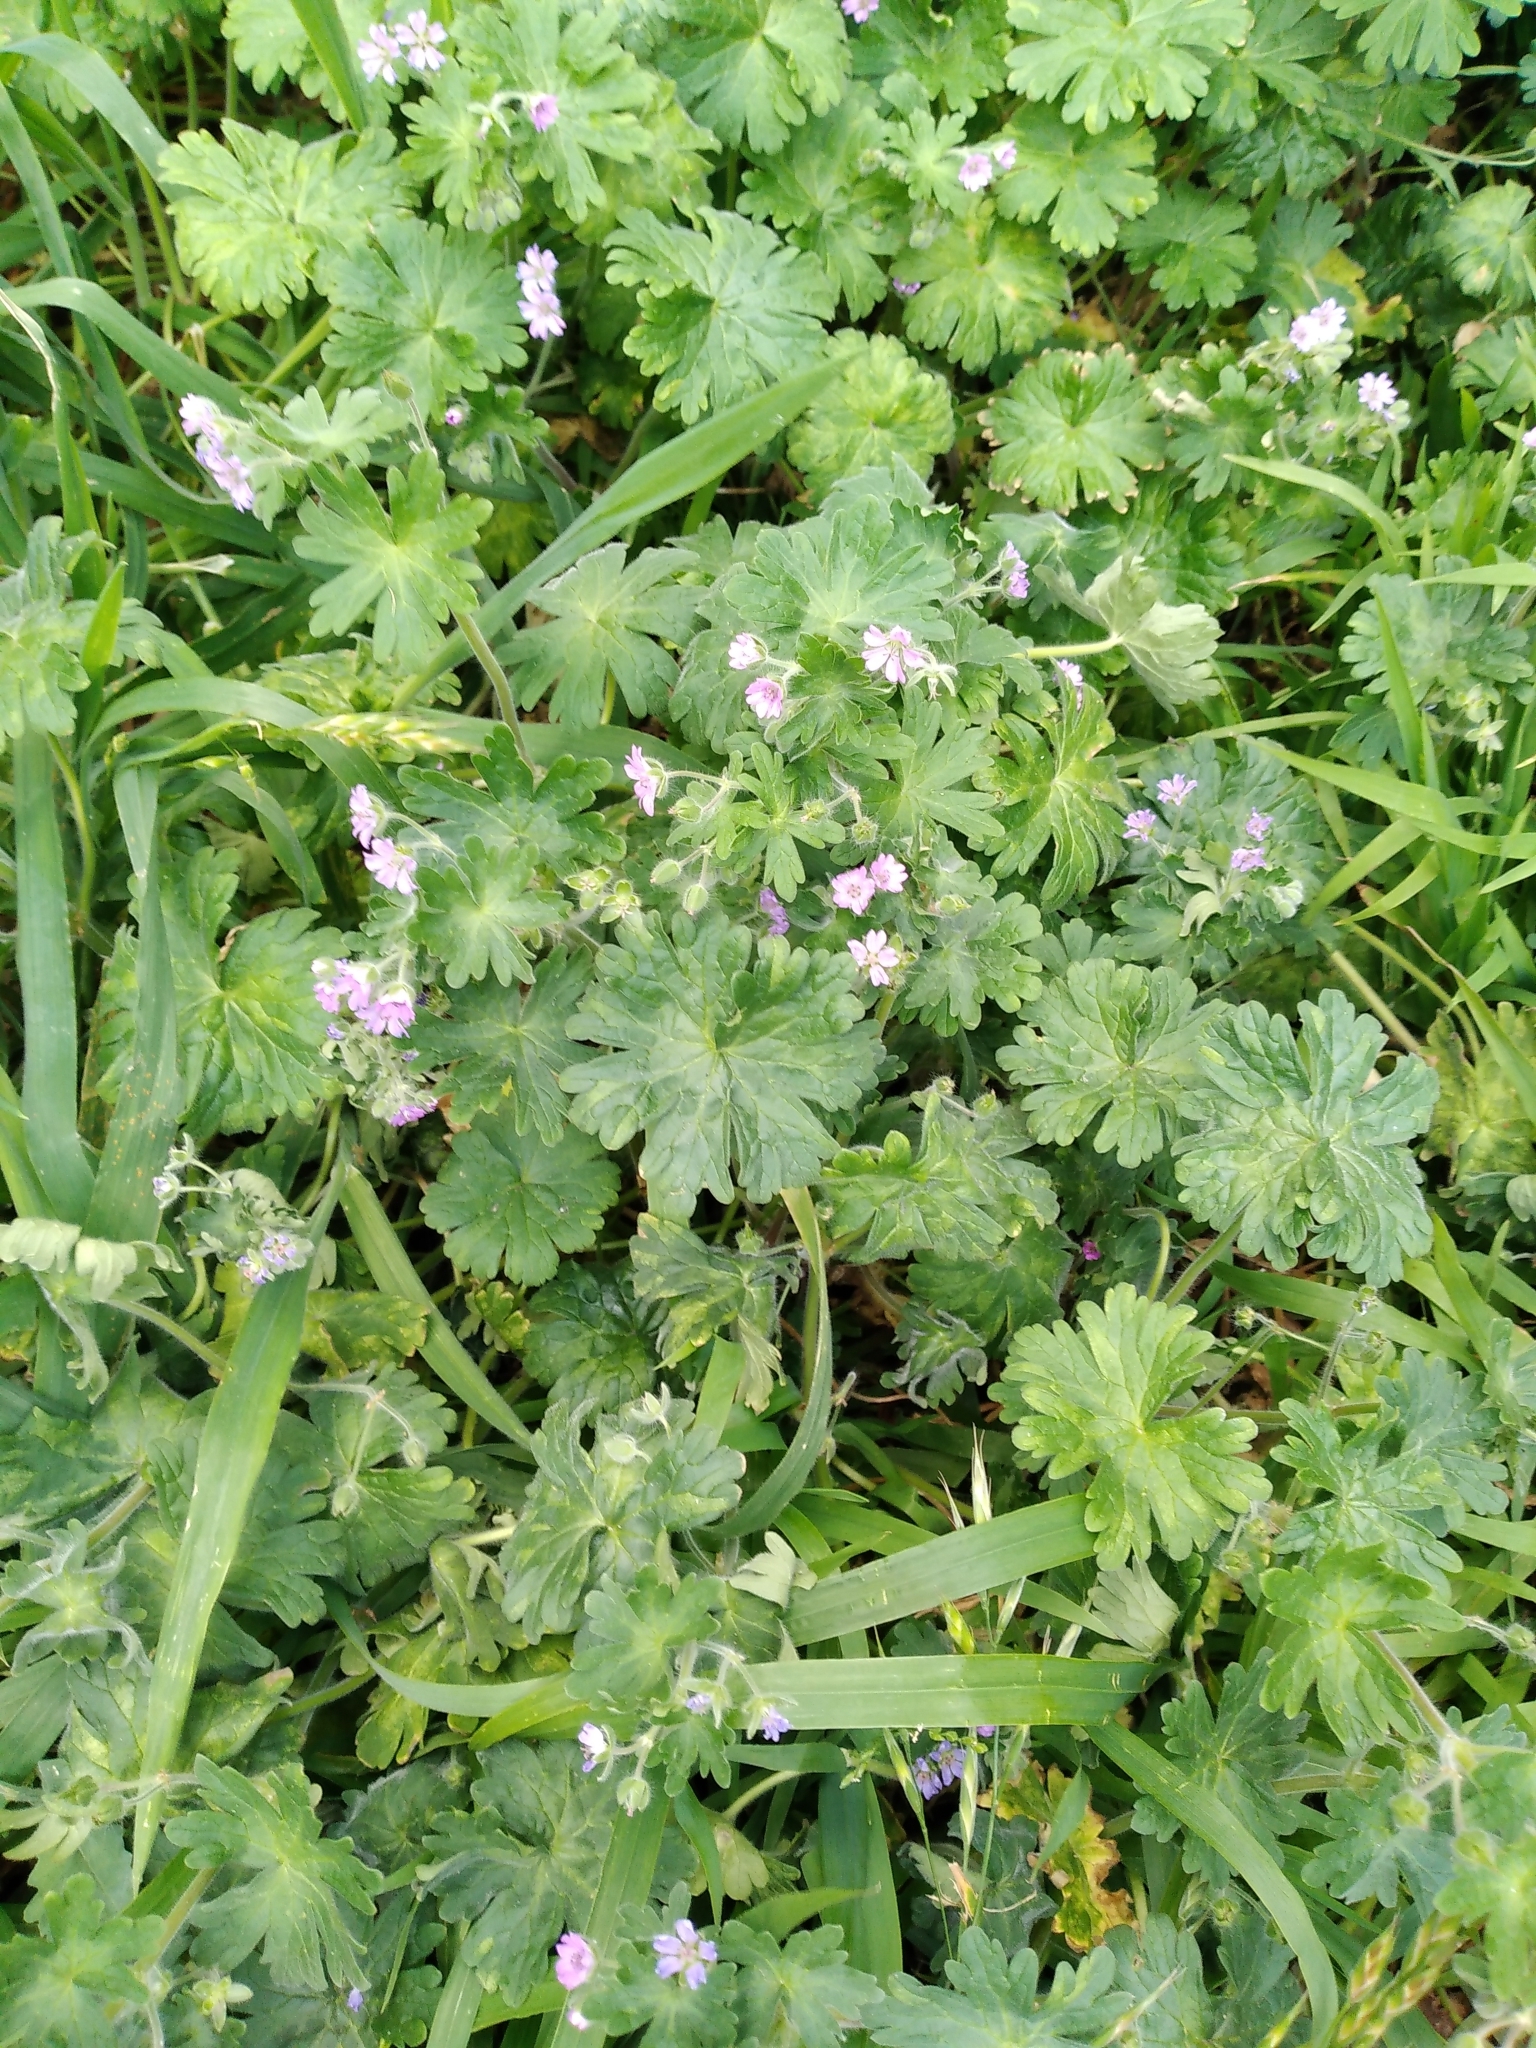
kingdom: Plantae
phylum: Tracheophyta
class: Magnoliopsida
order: Geraniales
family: Geraniaceae
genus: Geranium
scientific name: Geranium molle
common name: Dove's-foot crane's-bill
